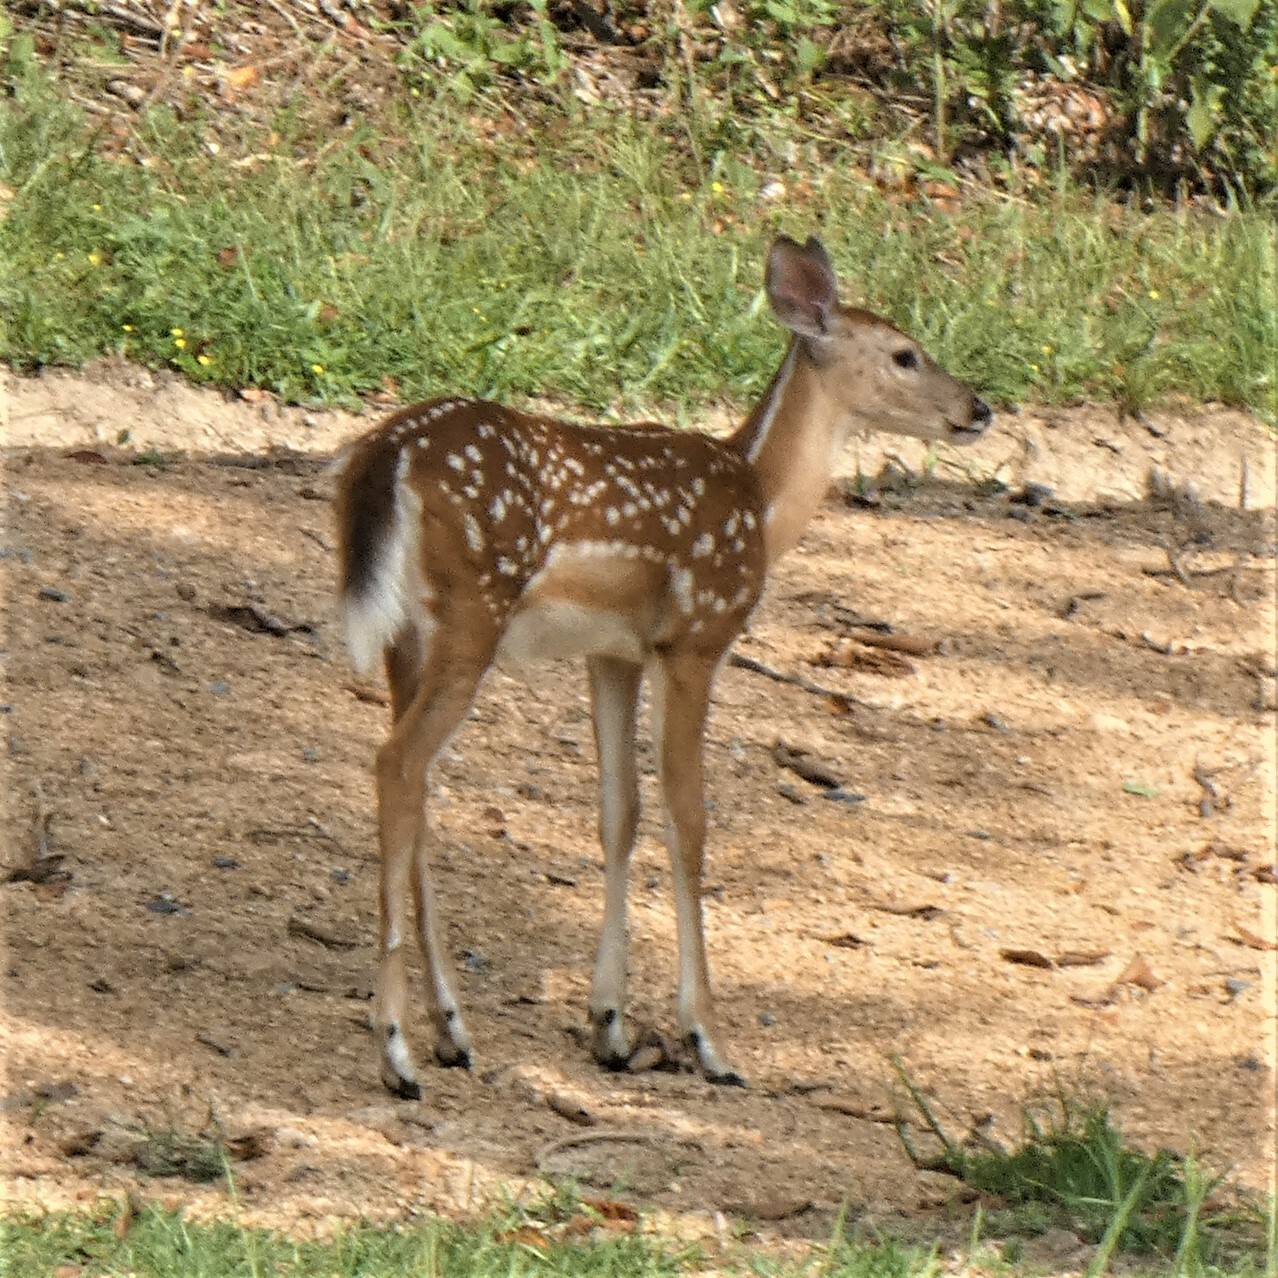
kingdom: Animalia
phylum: Chordata
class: Mammalia
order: Artiodactyla
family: Cervidae
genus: Odocoileus
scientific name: Odocoileus virginianus
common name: White-tailed deer
